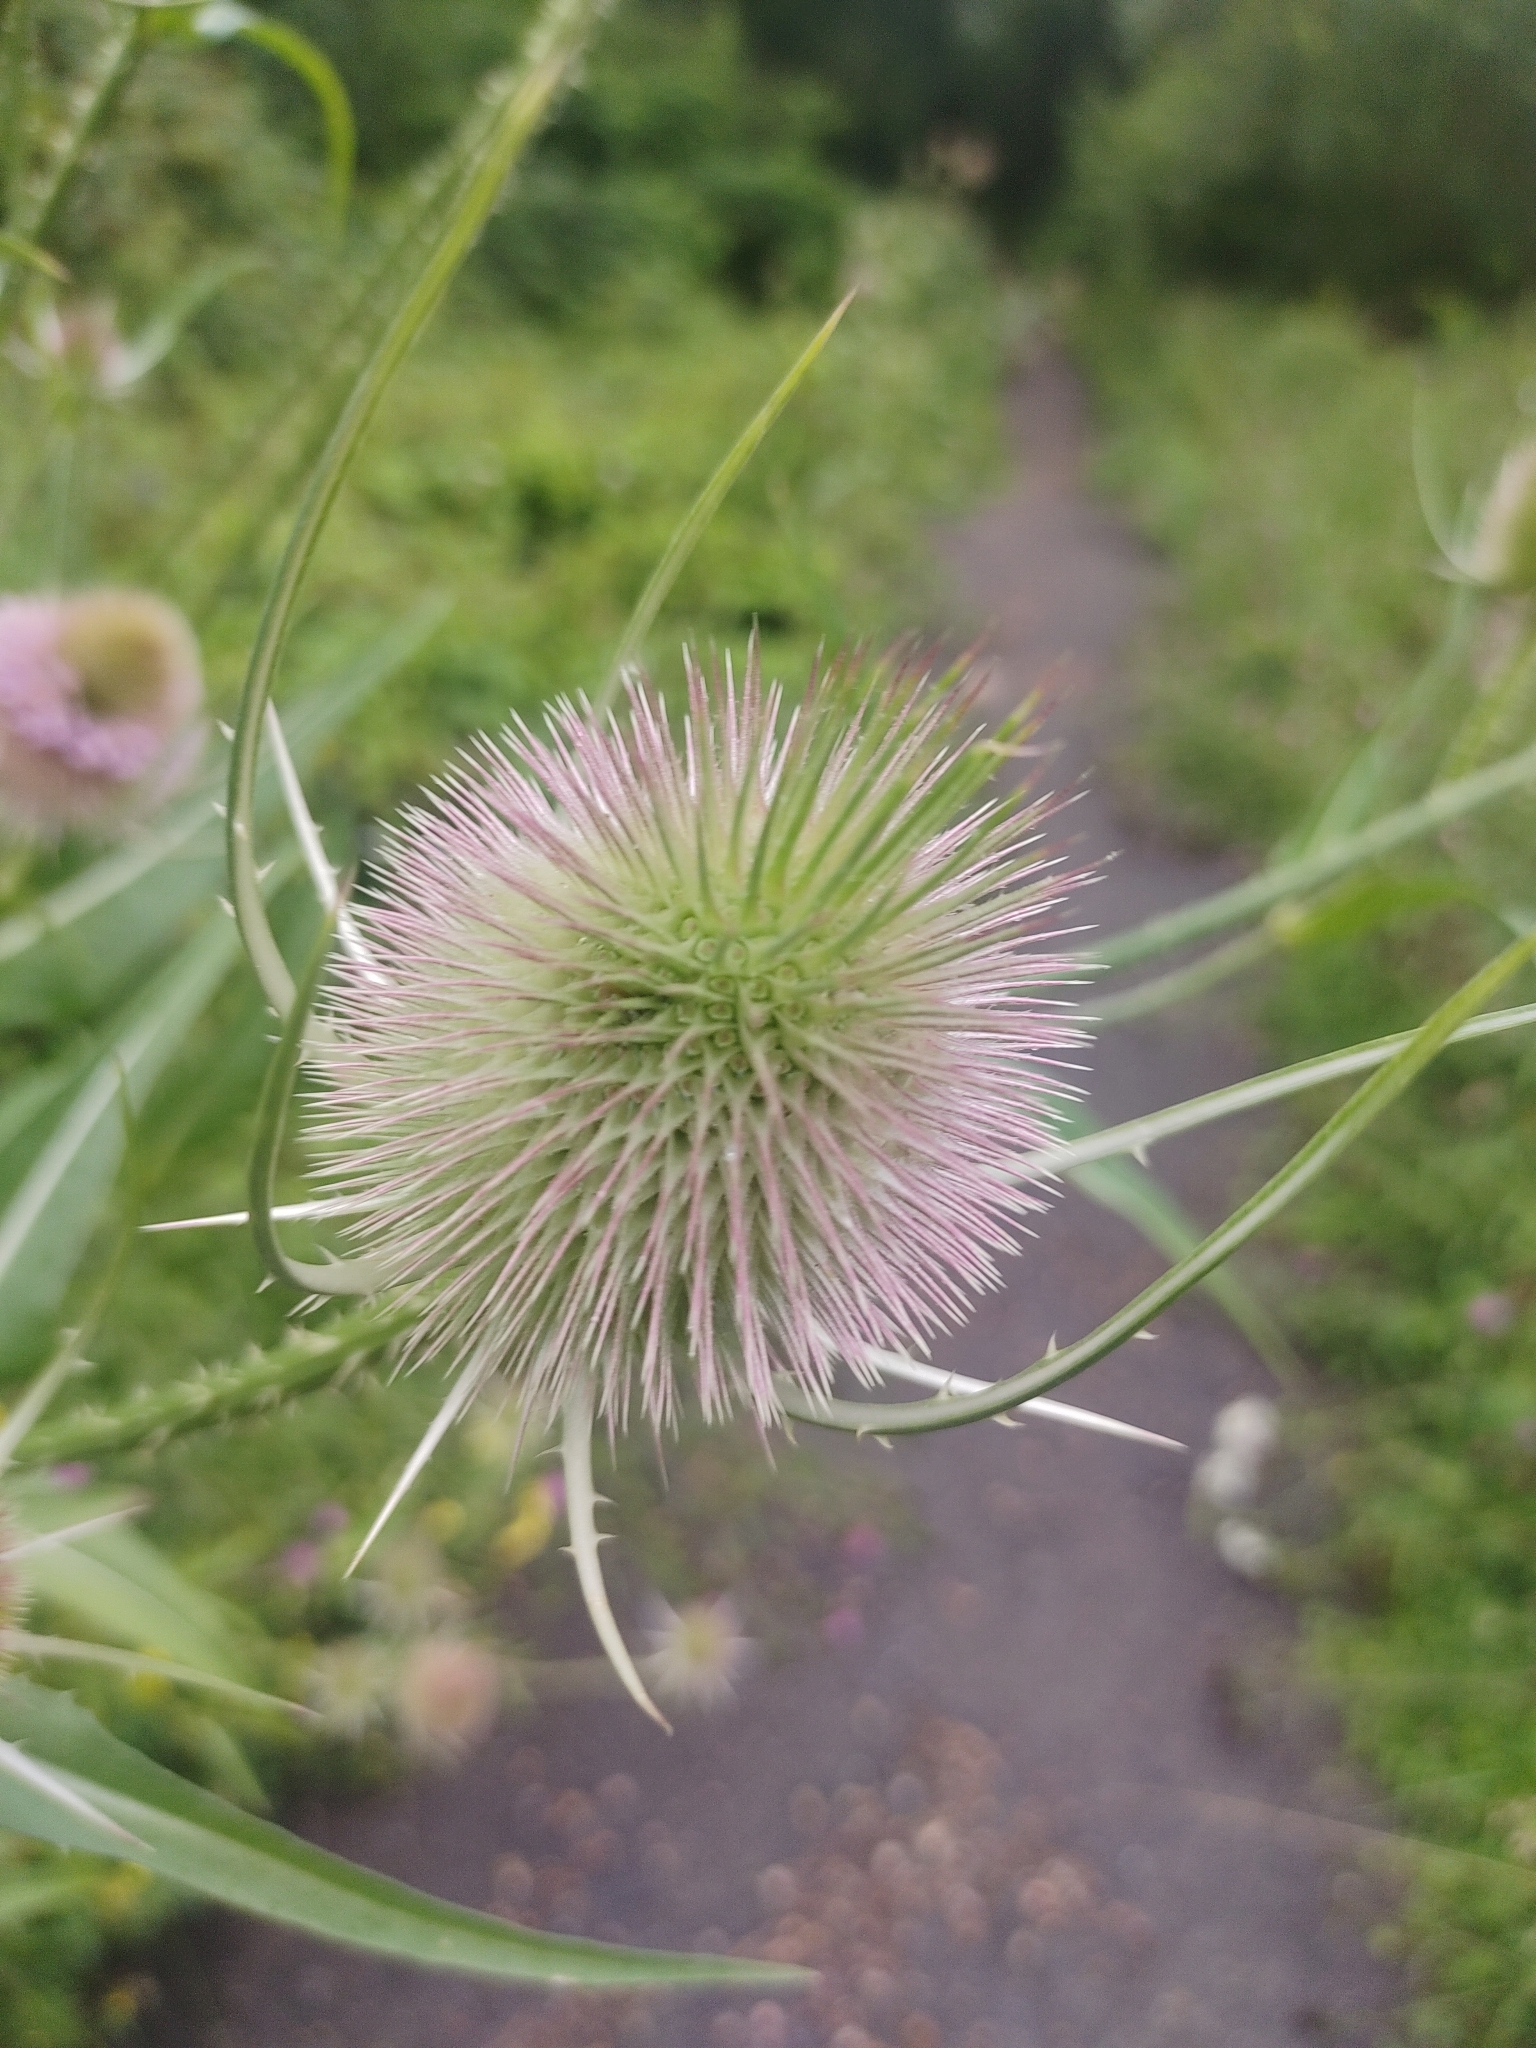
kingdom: Plantae
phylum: Tracheophyta
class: Magnoliopsida
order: Dipsacales
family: Caprifoliaceae
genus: Dipsacus
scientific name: Dipsacus fullonum
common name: Teasel
